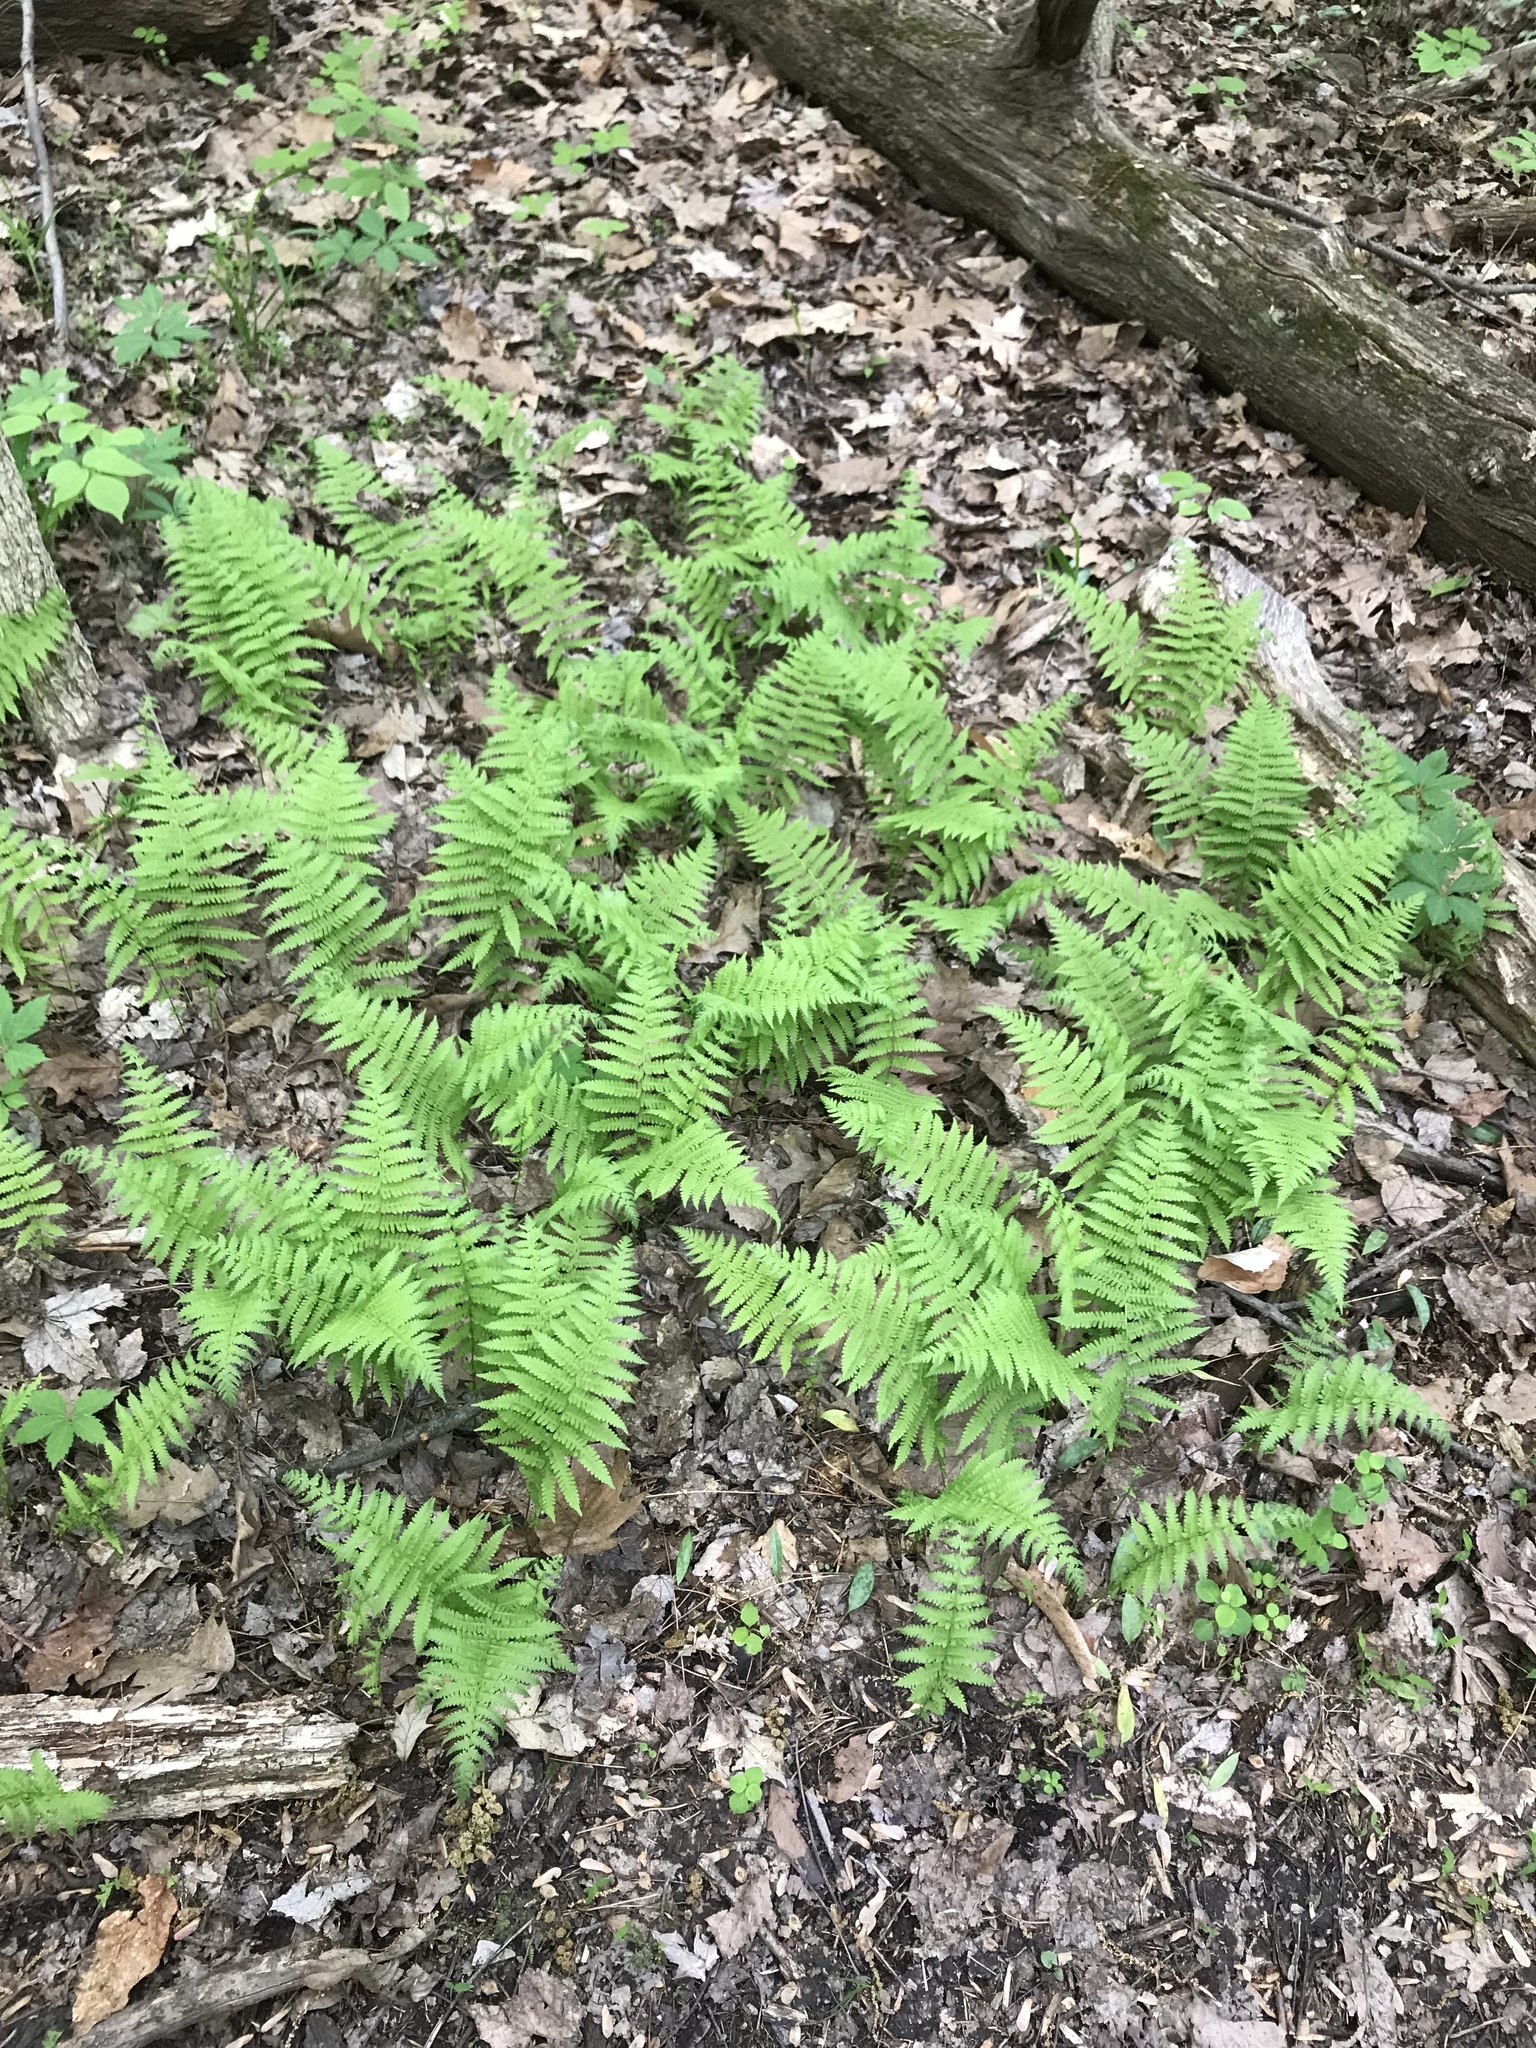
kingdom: Plantae
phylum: Tracheophyta
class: Polypodiopsida
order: Polypodiales
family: Thelypteridaceae
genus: Amauropelta
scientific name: Amauropelta noveboracensis
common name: New york fern
